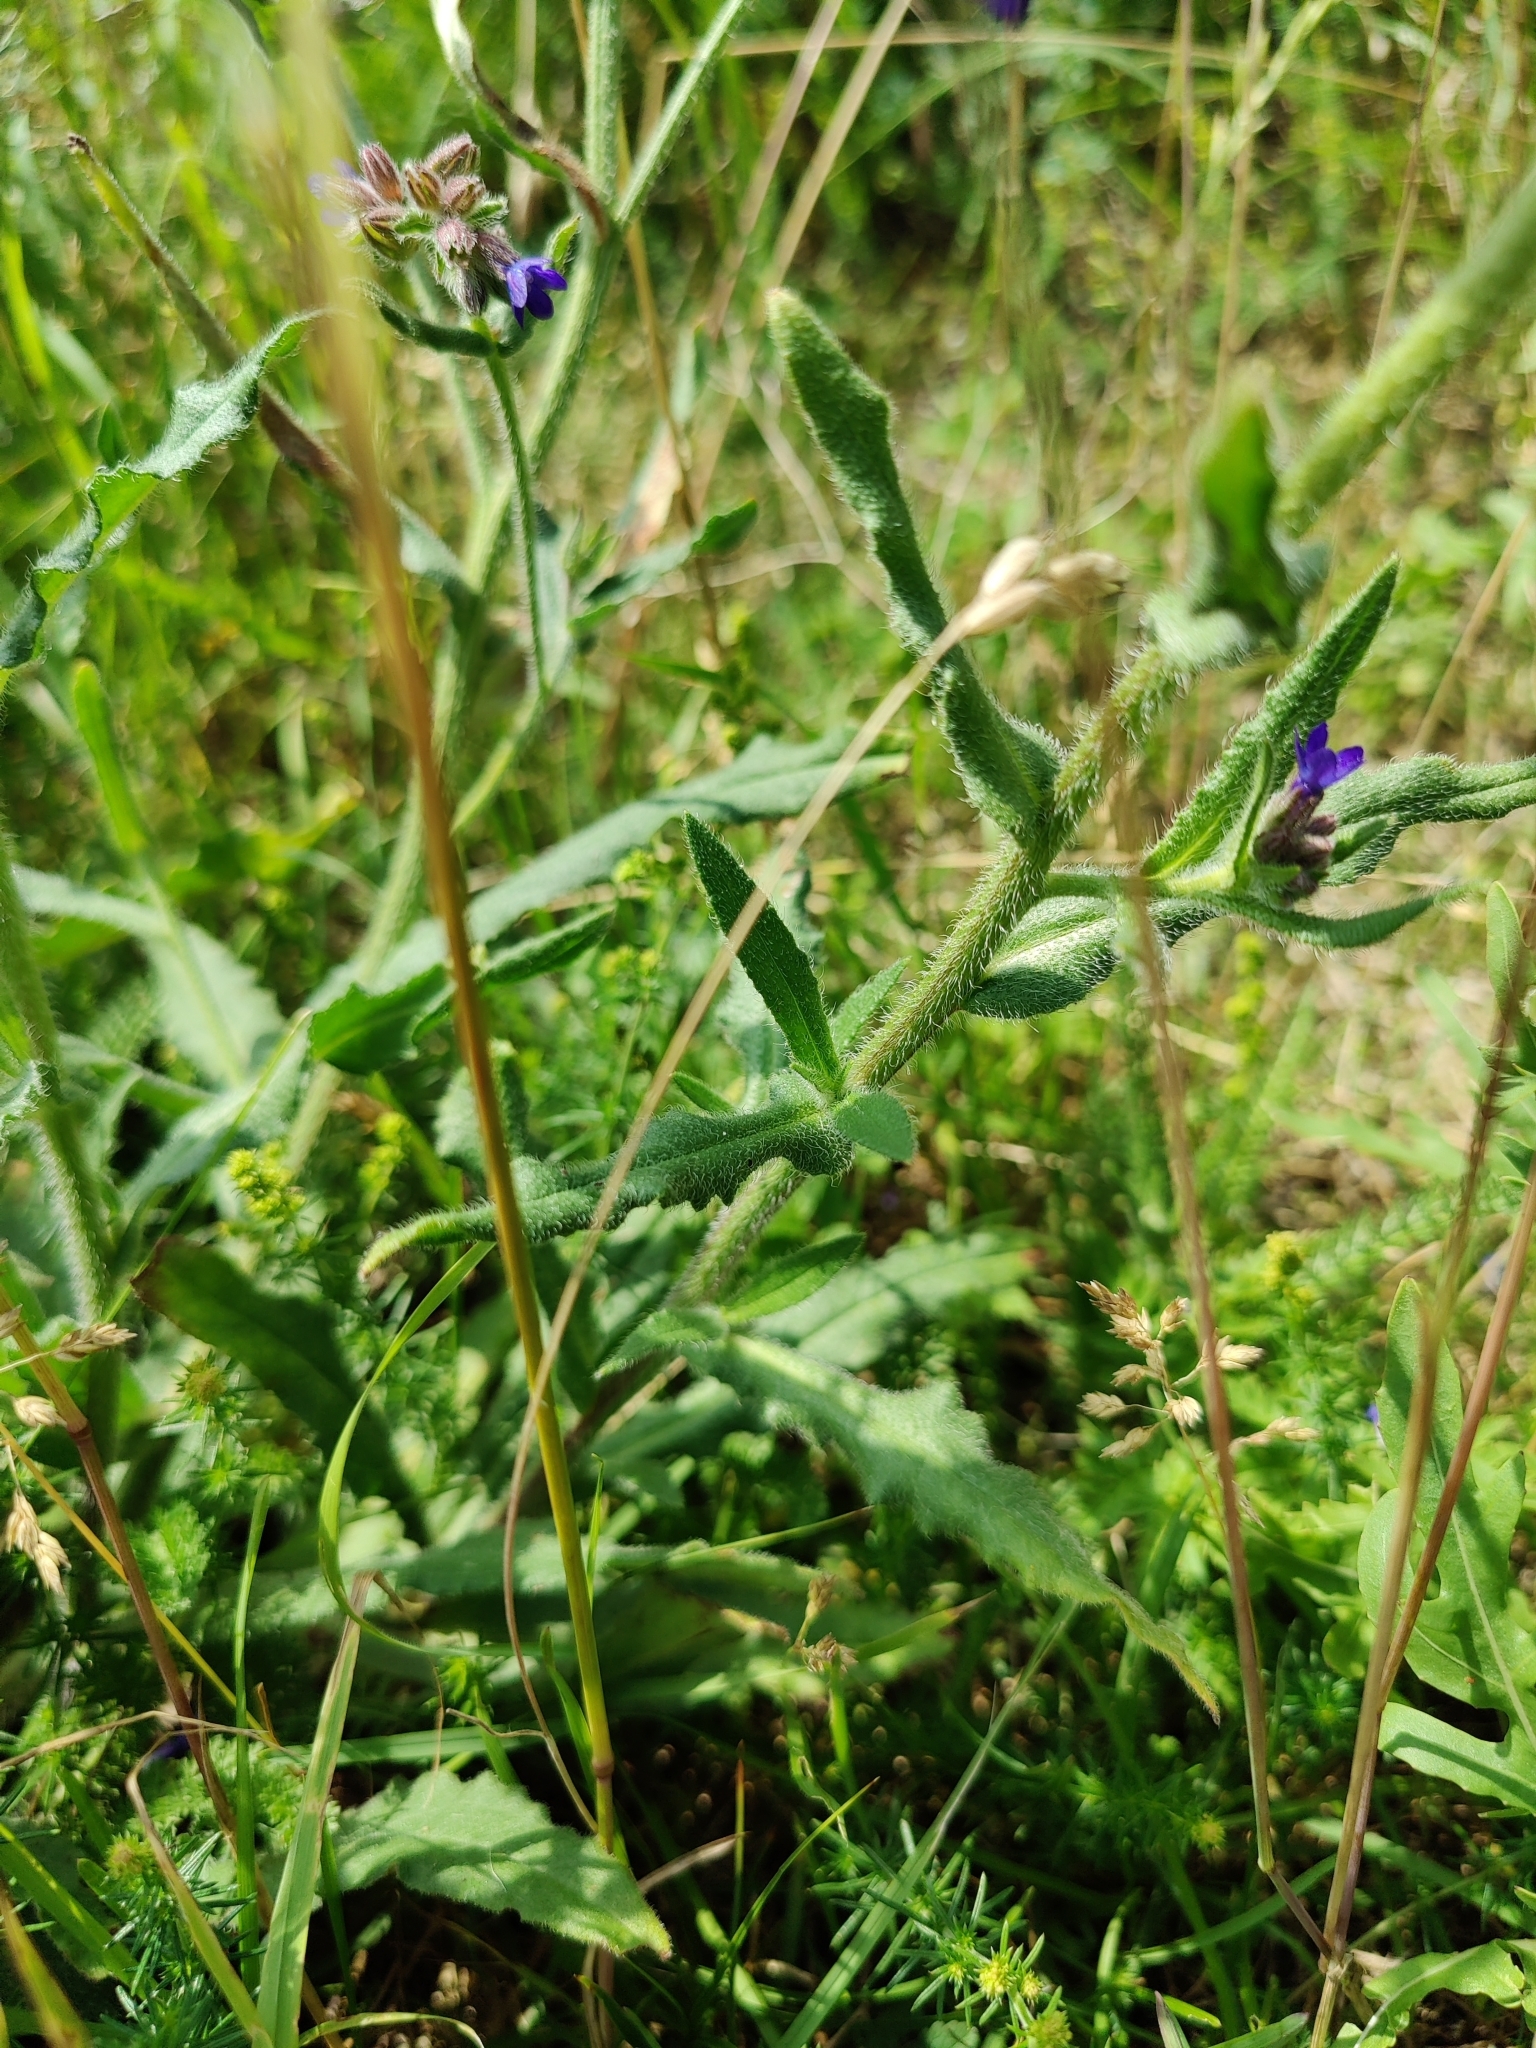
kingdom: Plantae
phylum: Tracheophyta
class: Magnoliopsida
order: Boraginales
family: Boraginaceae
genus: Anchusa
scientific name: Anchusa officinalis
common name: Alkanet
